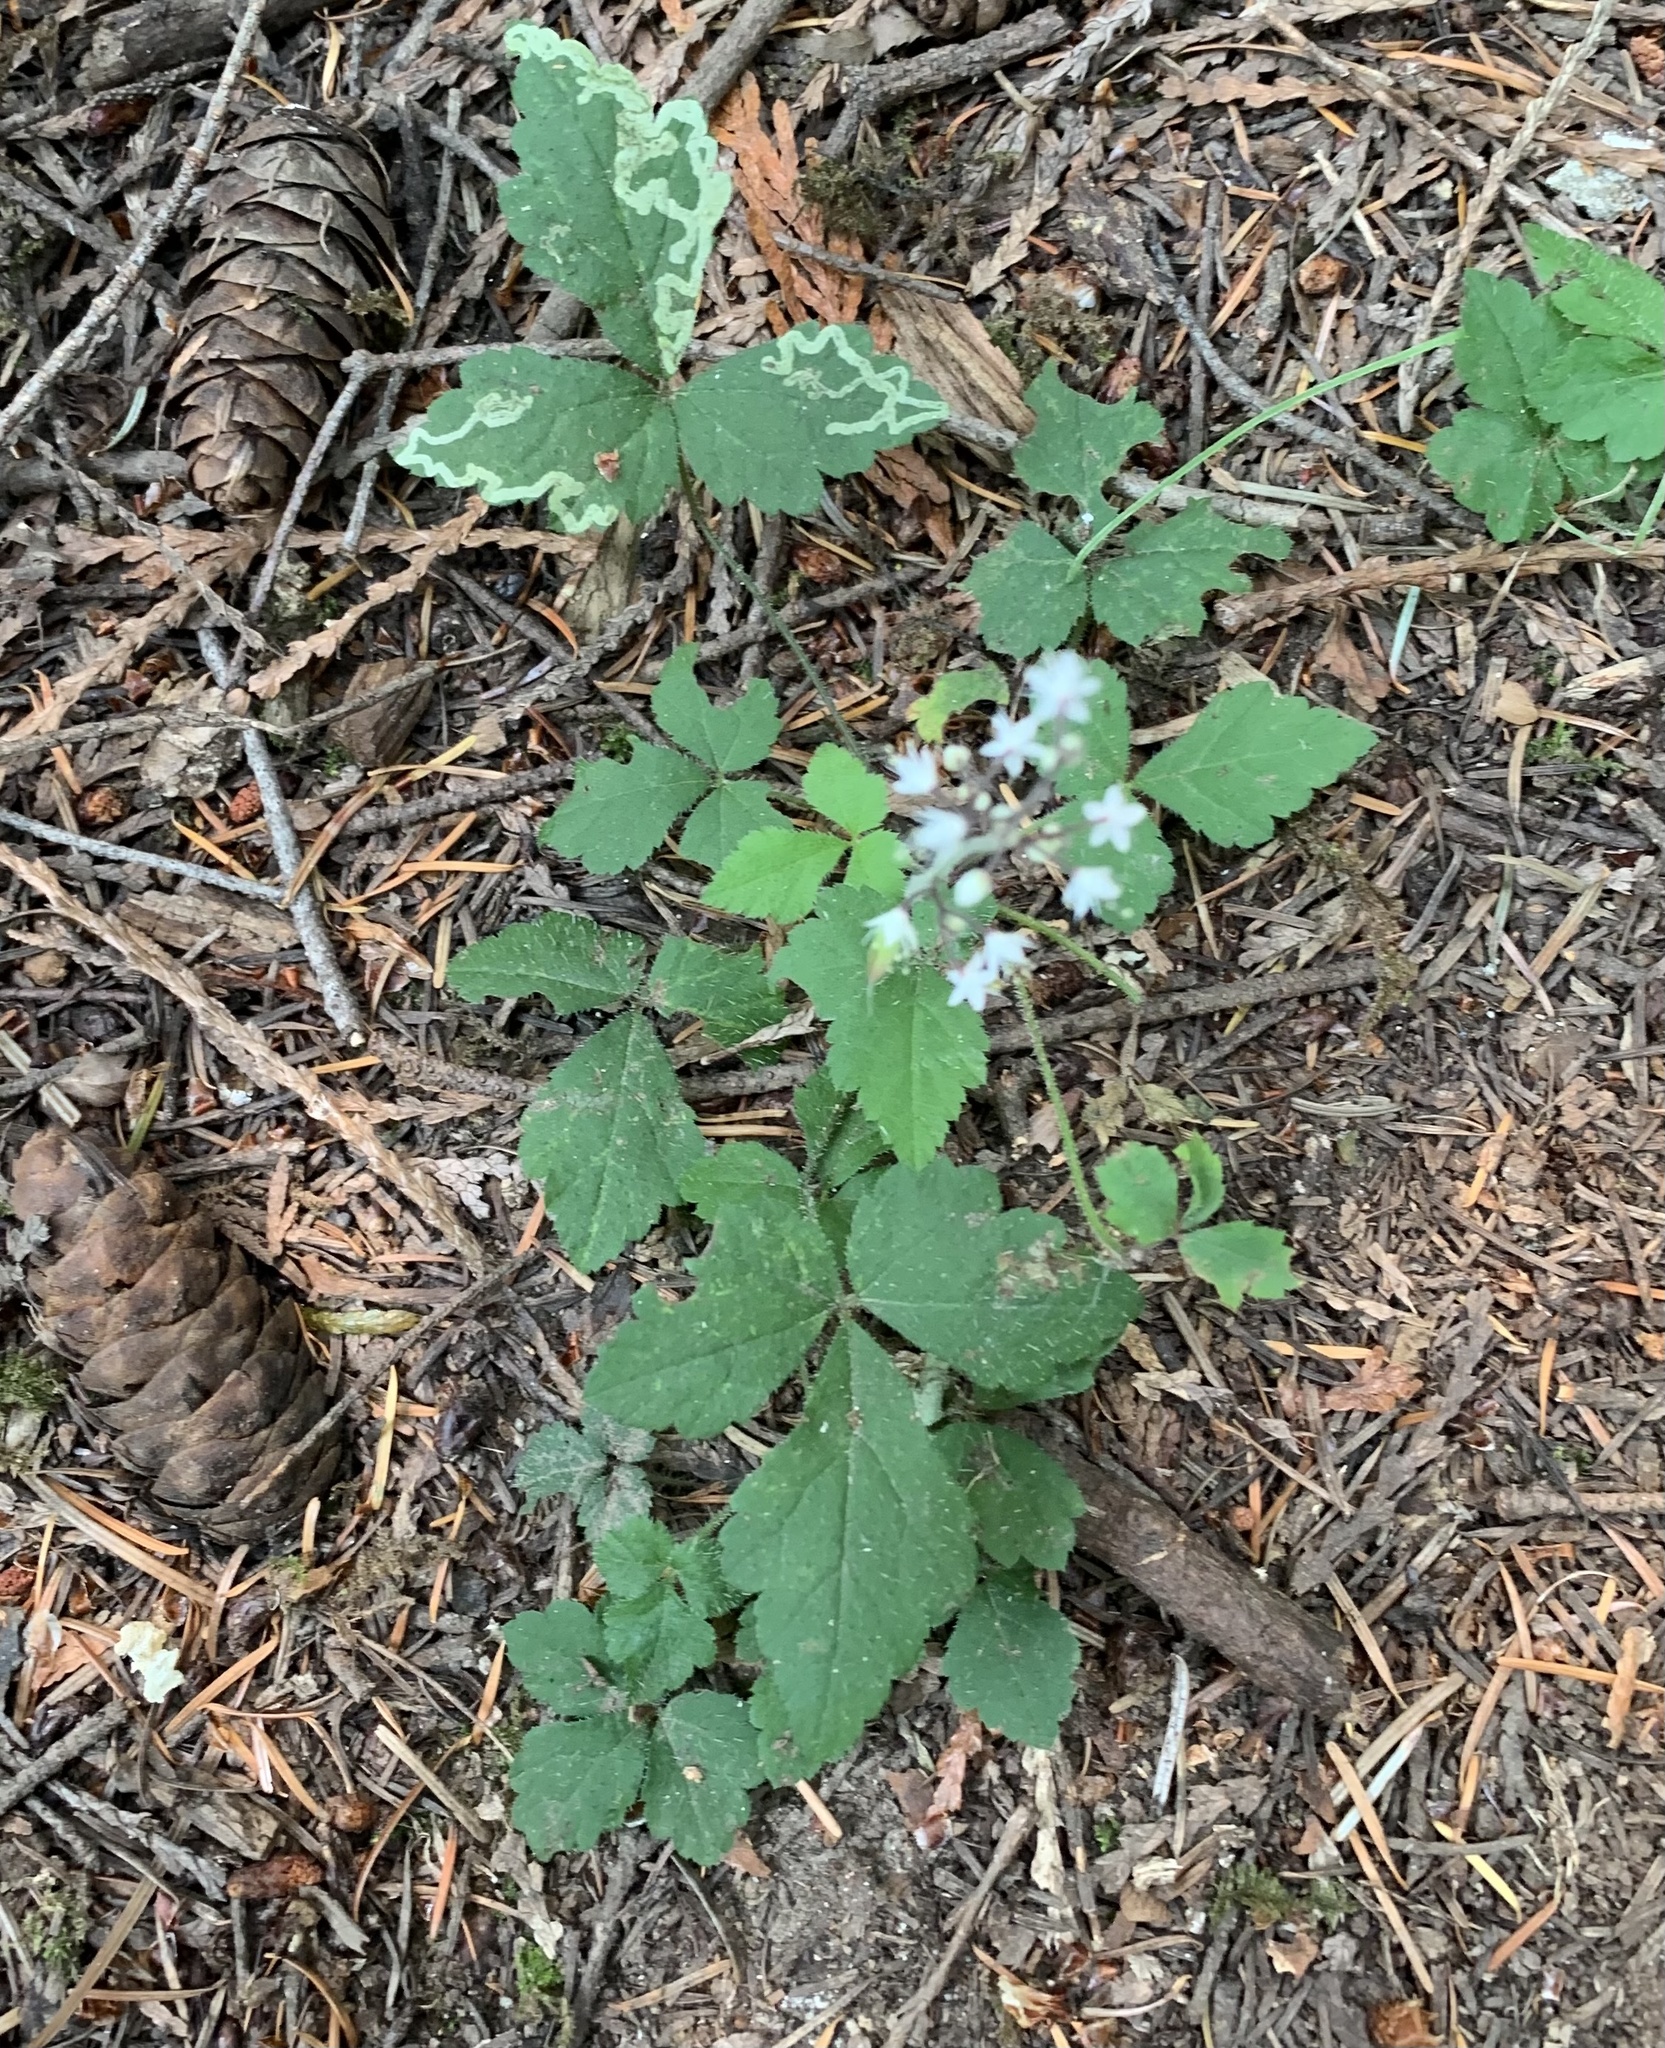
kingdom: Plantae
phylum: Tracheophyta
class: Magnoliopsida
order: Saxifragales
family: Saxifragaceae
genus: Tiarella
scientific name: Tiarella trifoliata
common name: Sugar-scoop
